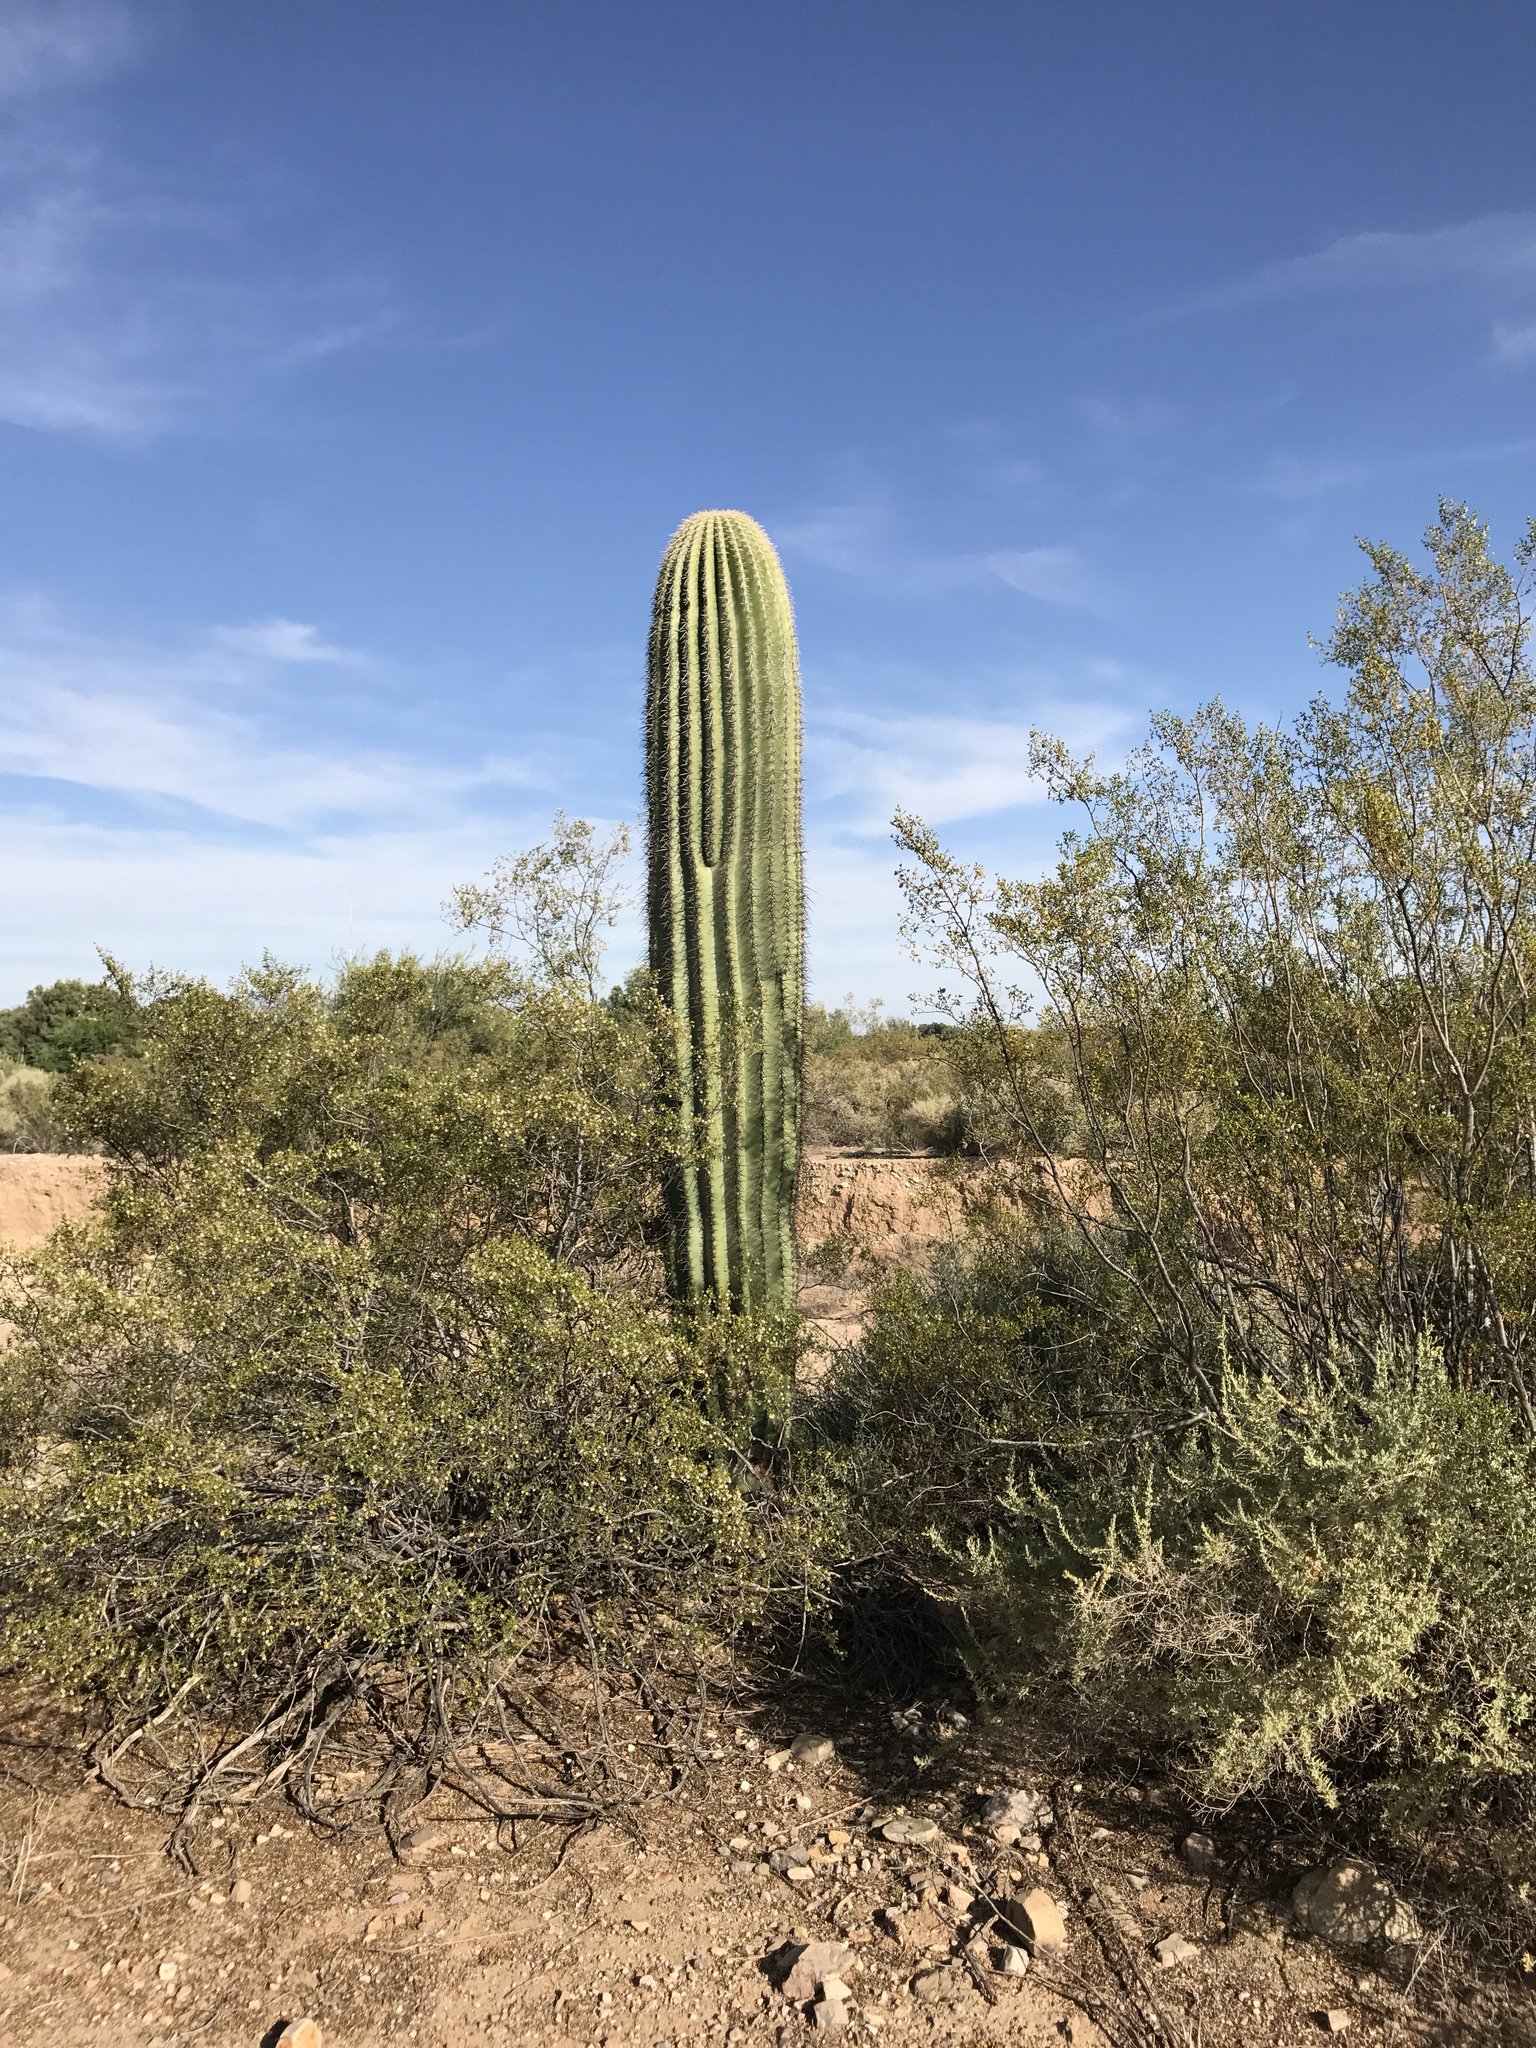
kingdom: Plantae
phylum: Tracheophyta
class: Magnoliopsida
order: Caryophyllales
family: Cactaceae
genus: Carnegiea
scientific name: Carnegiea gigantea
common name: Saguaro
